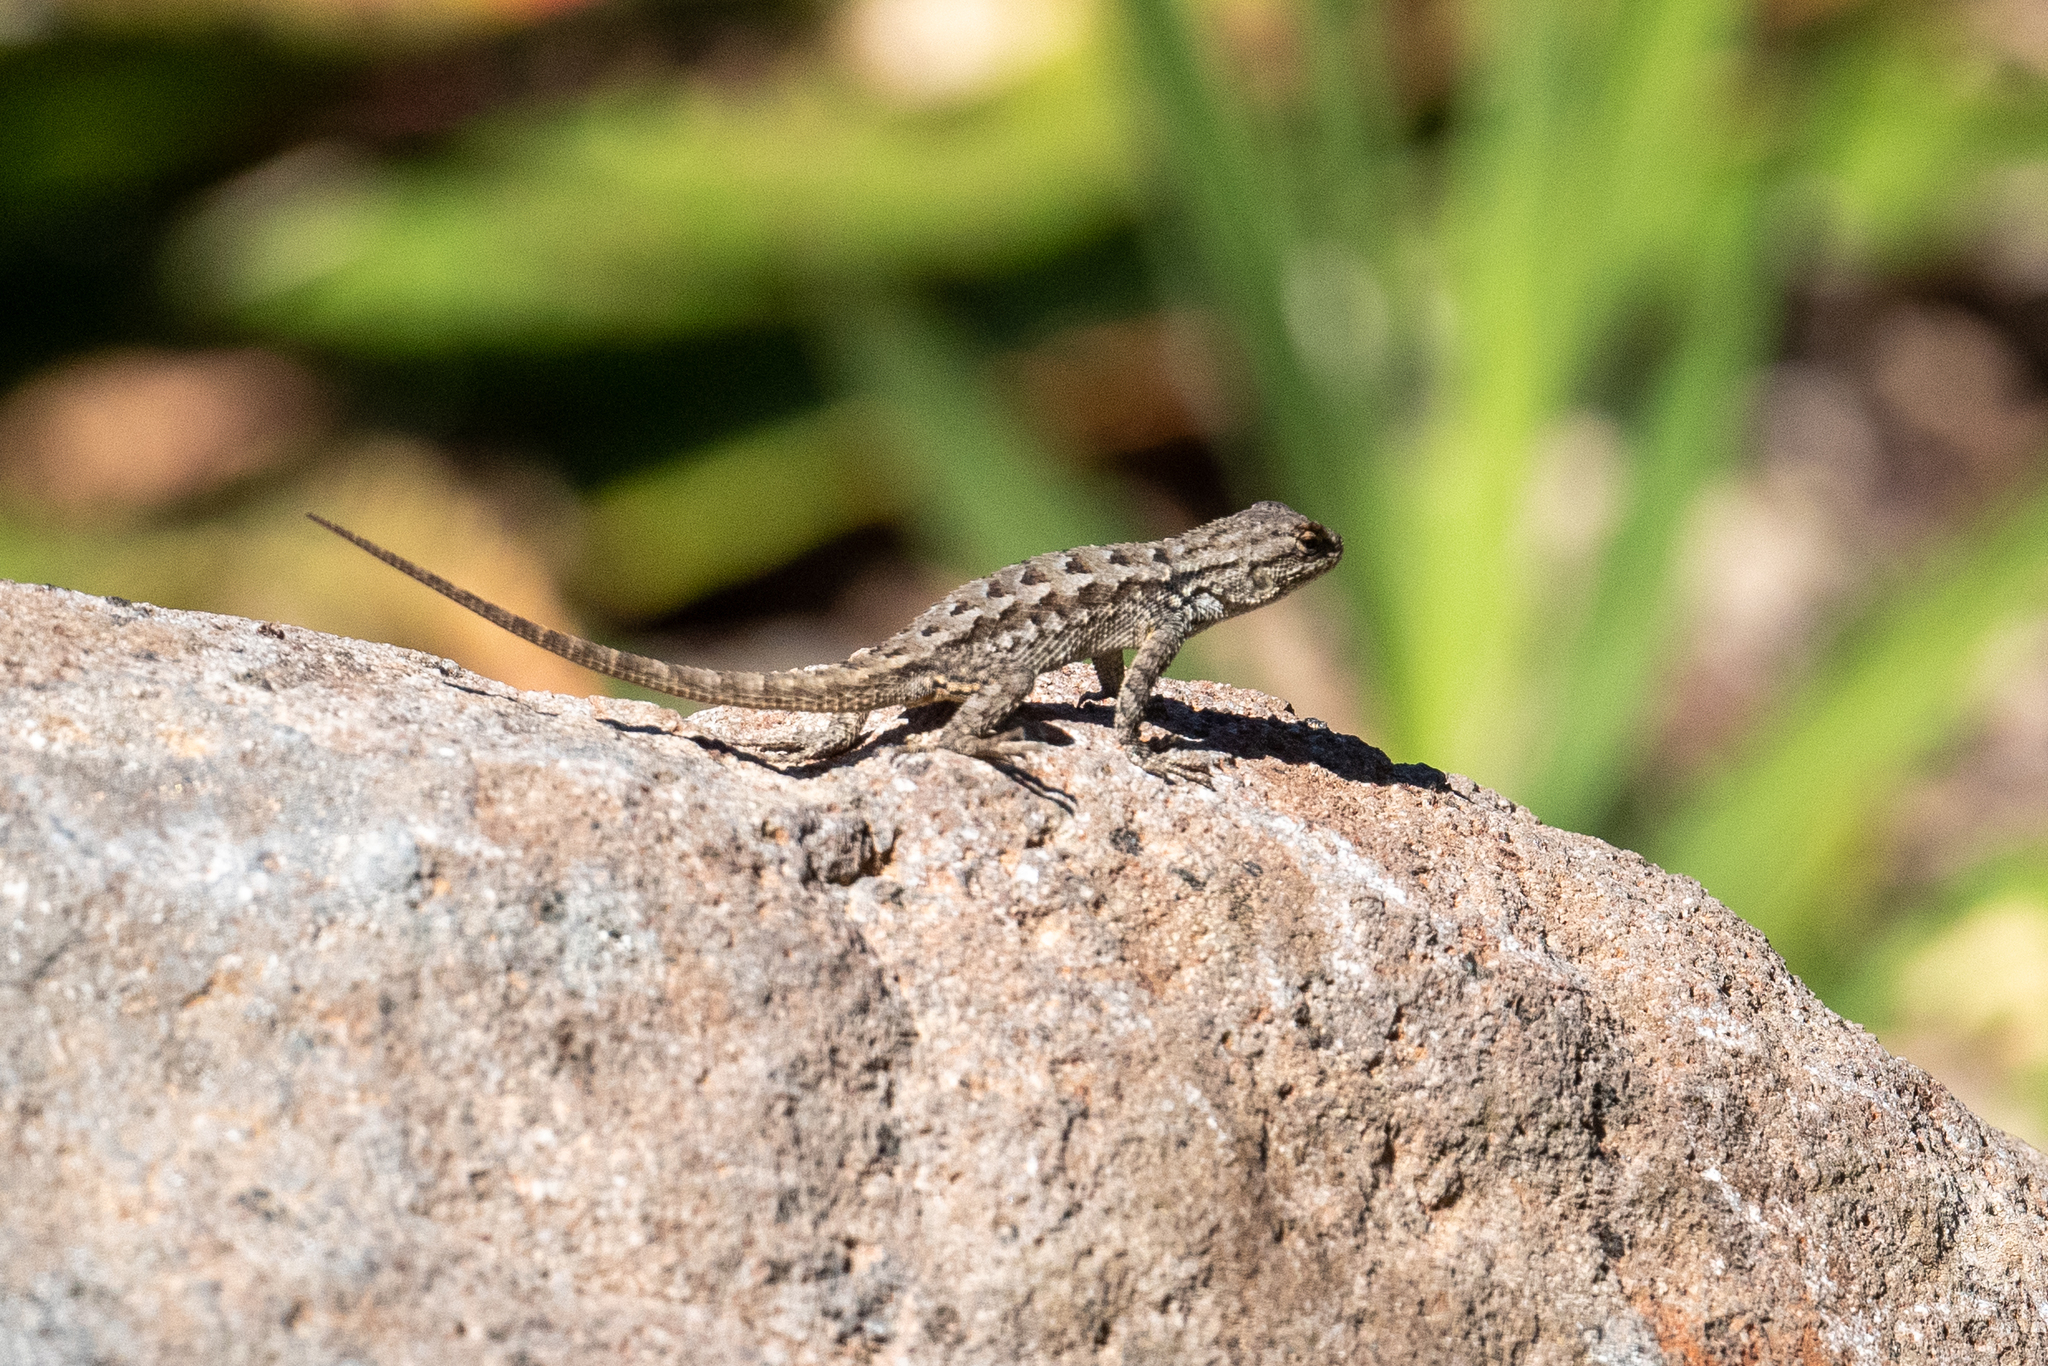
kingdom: Animalia
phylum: Chordata
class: Squamata
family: Phrynosomatidae
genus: Sceloporus
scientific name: Sceloporus occidentalis
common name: Western fence lizard
